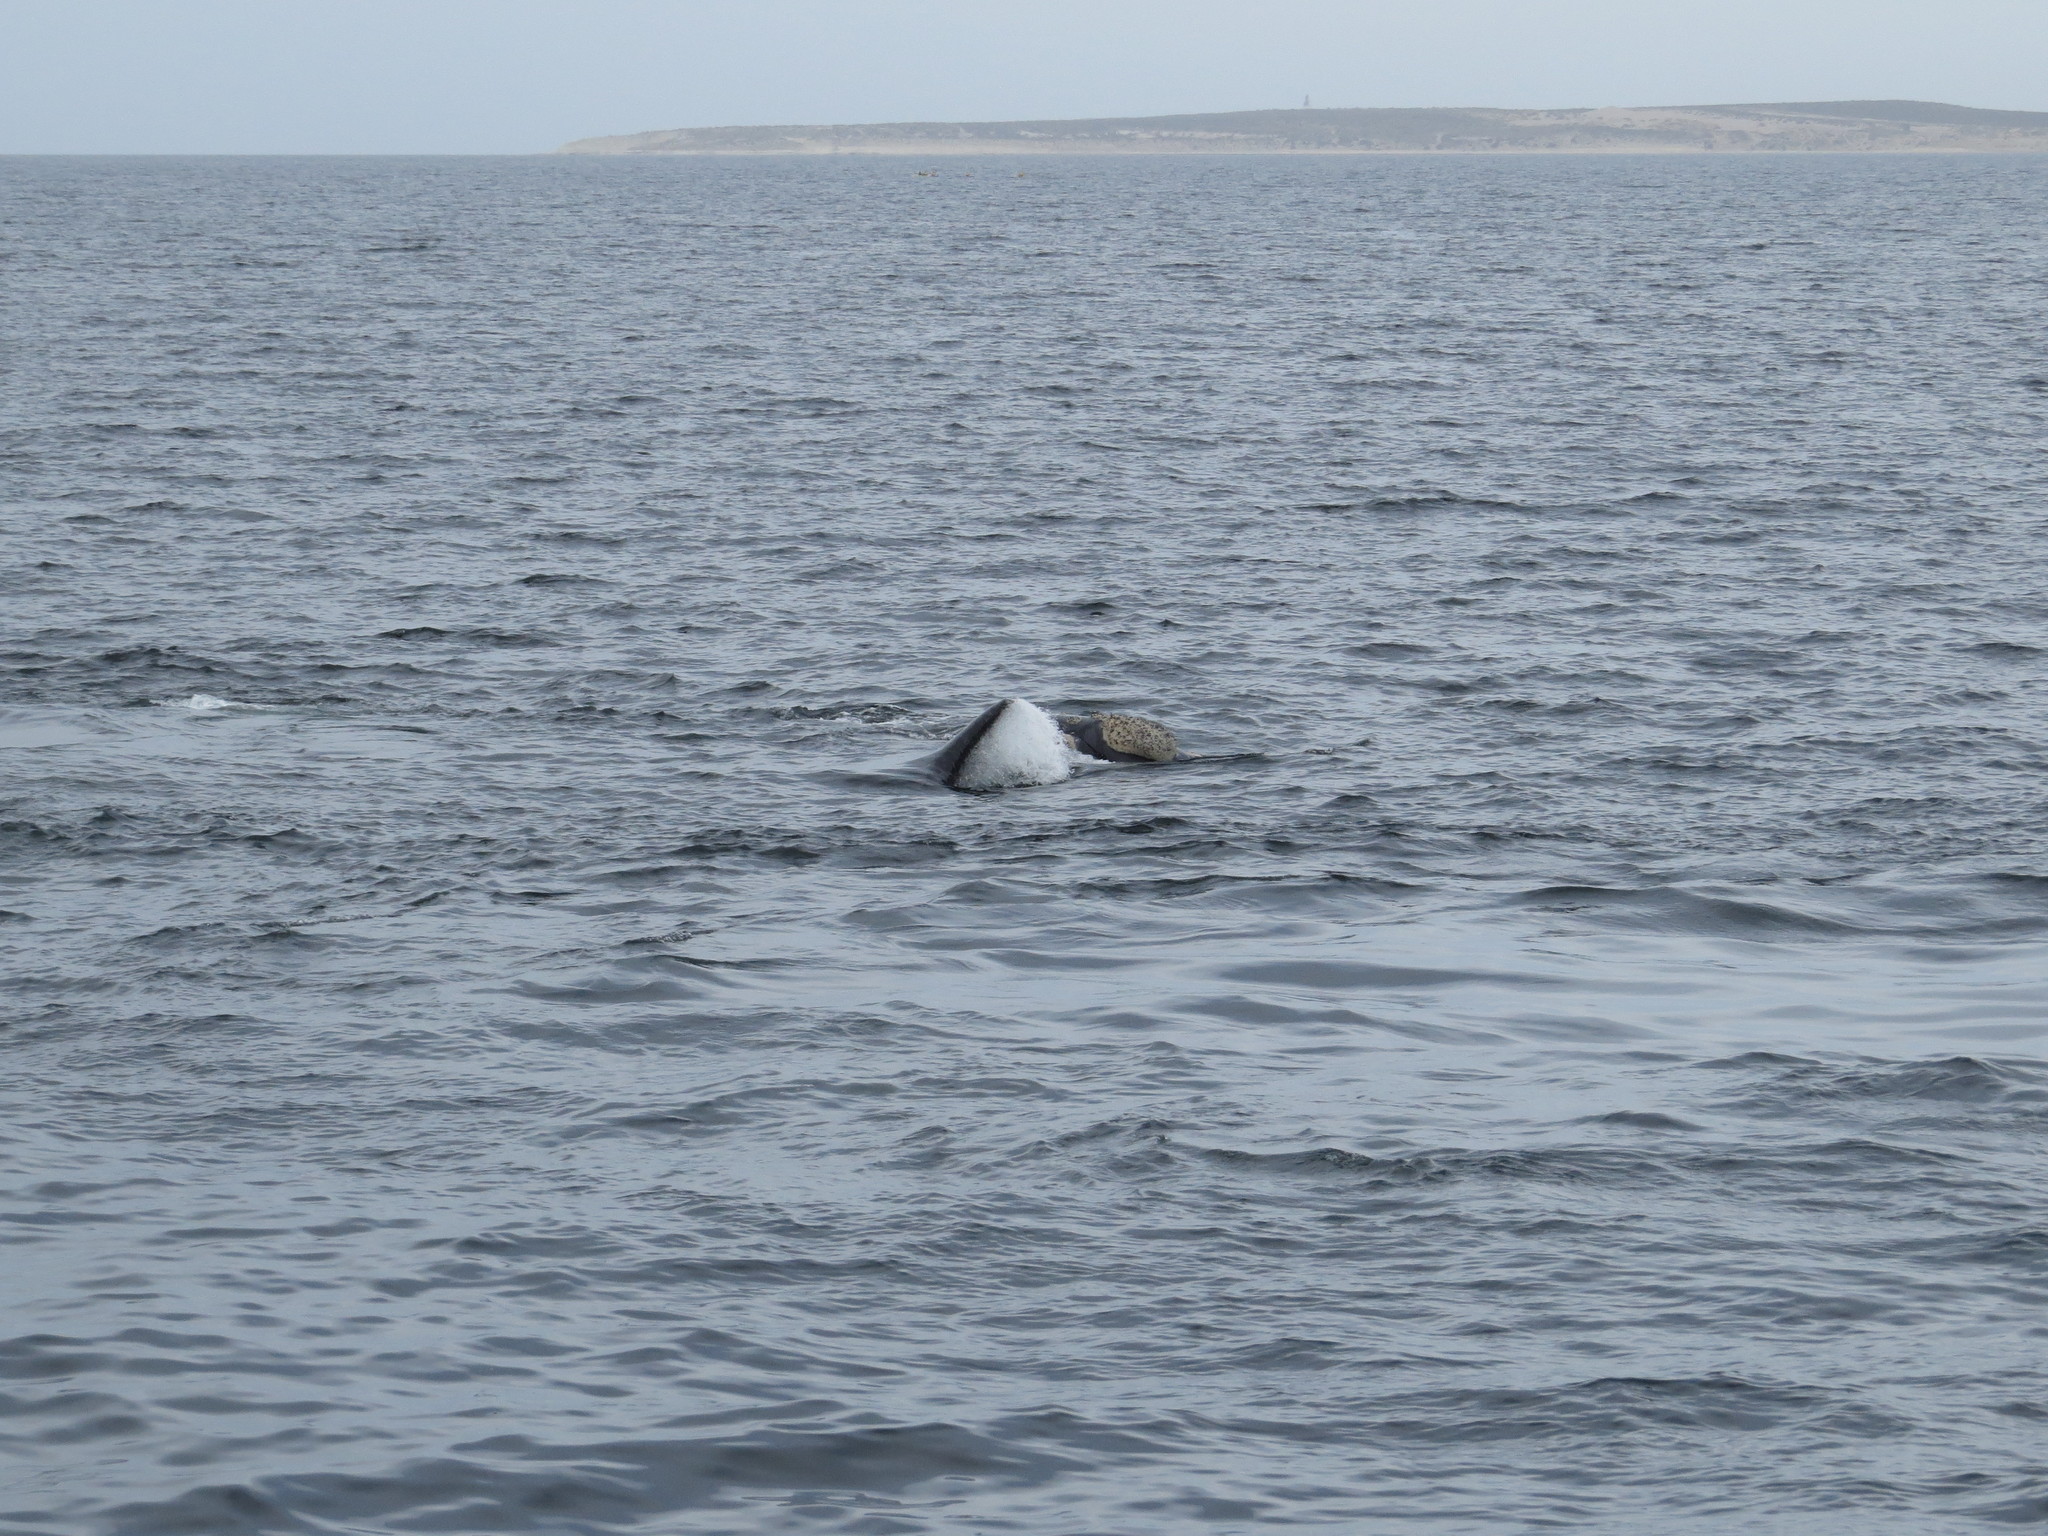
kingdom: Animalia
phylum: Chordata
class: Mammalia
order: Cetacea
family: Balaenidae
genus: Eubalaena
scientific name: Eubalaena australis
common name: Southern right whale
